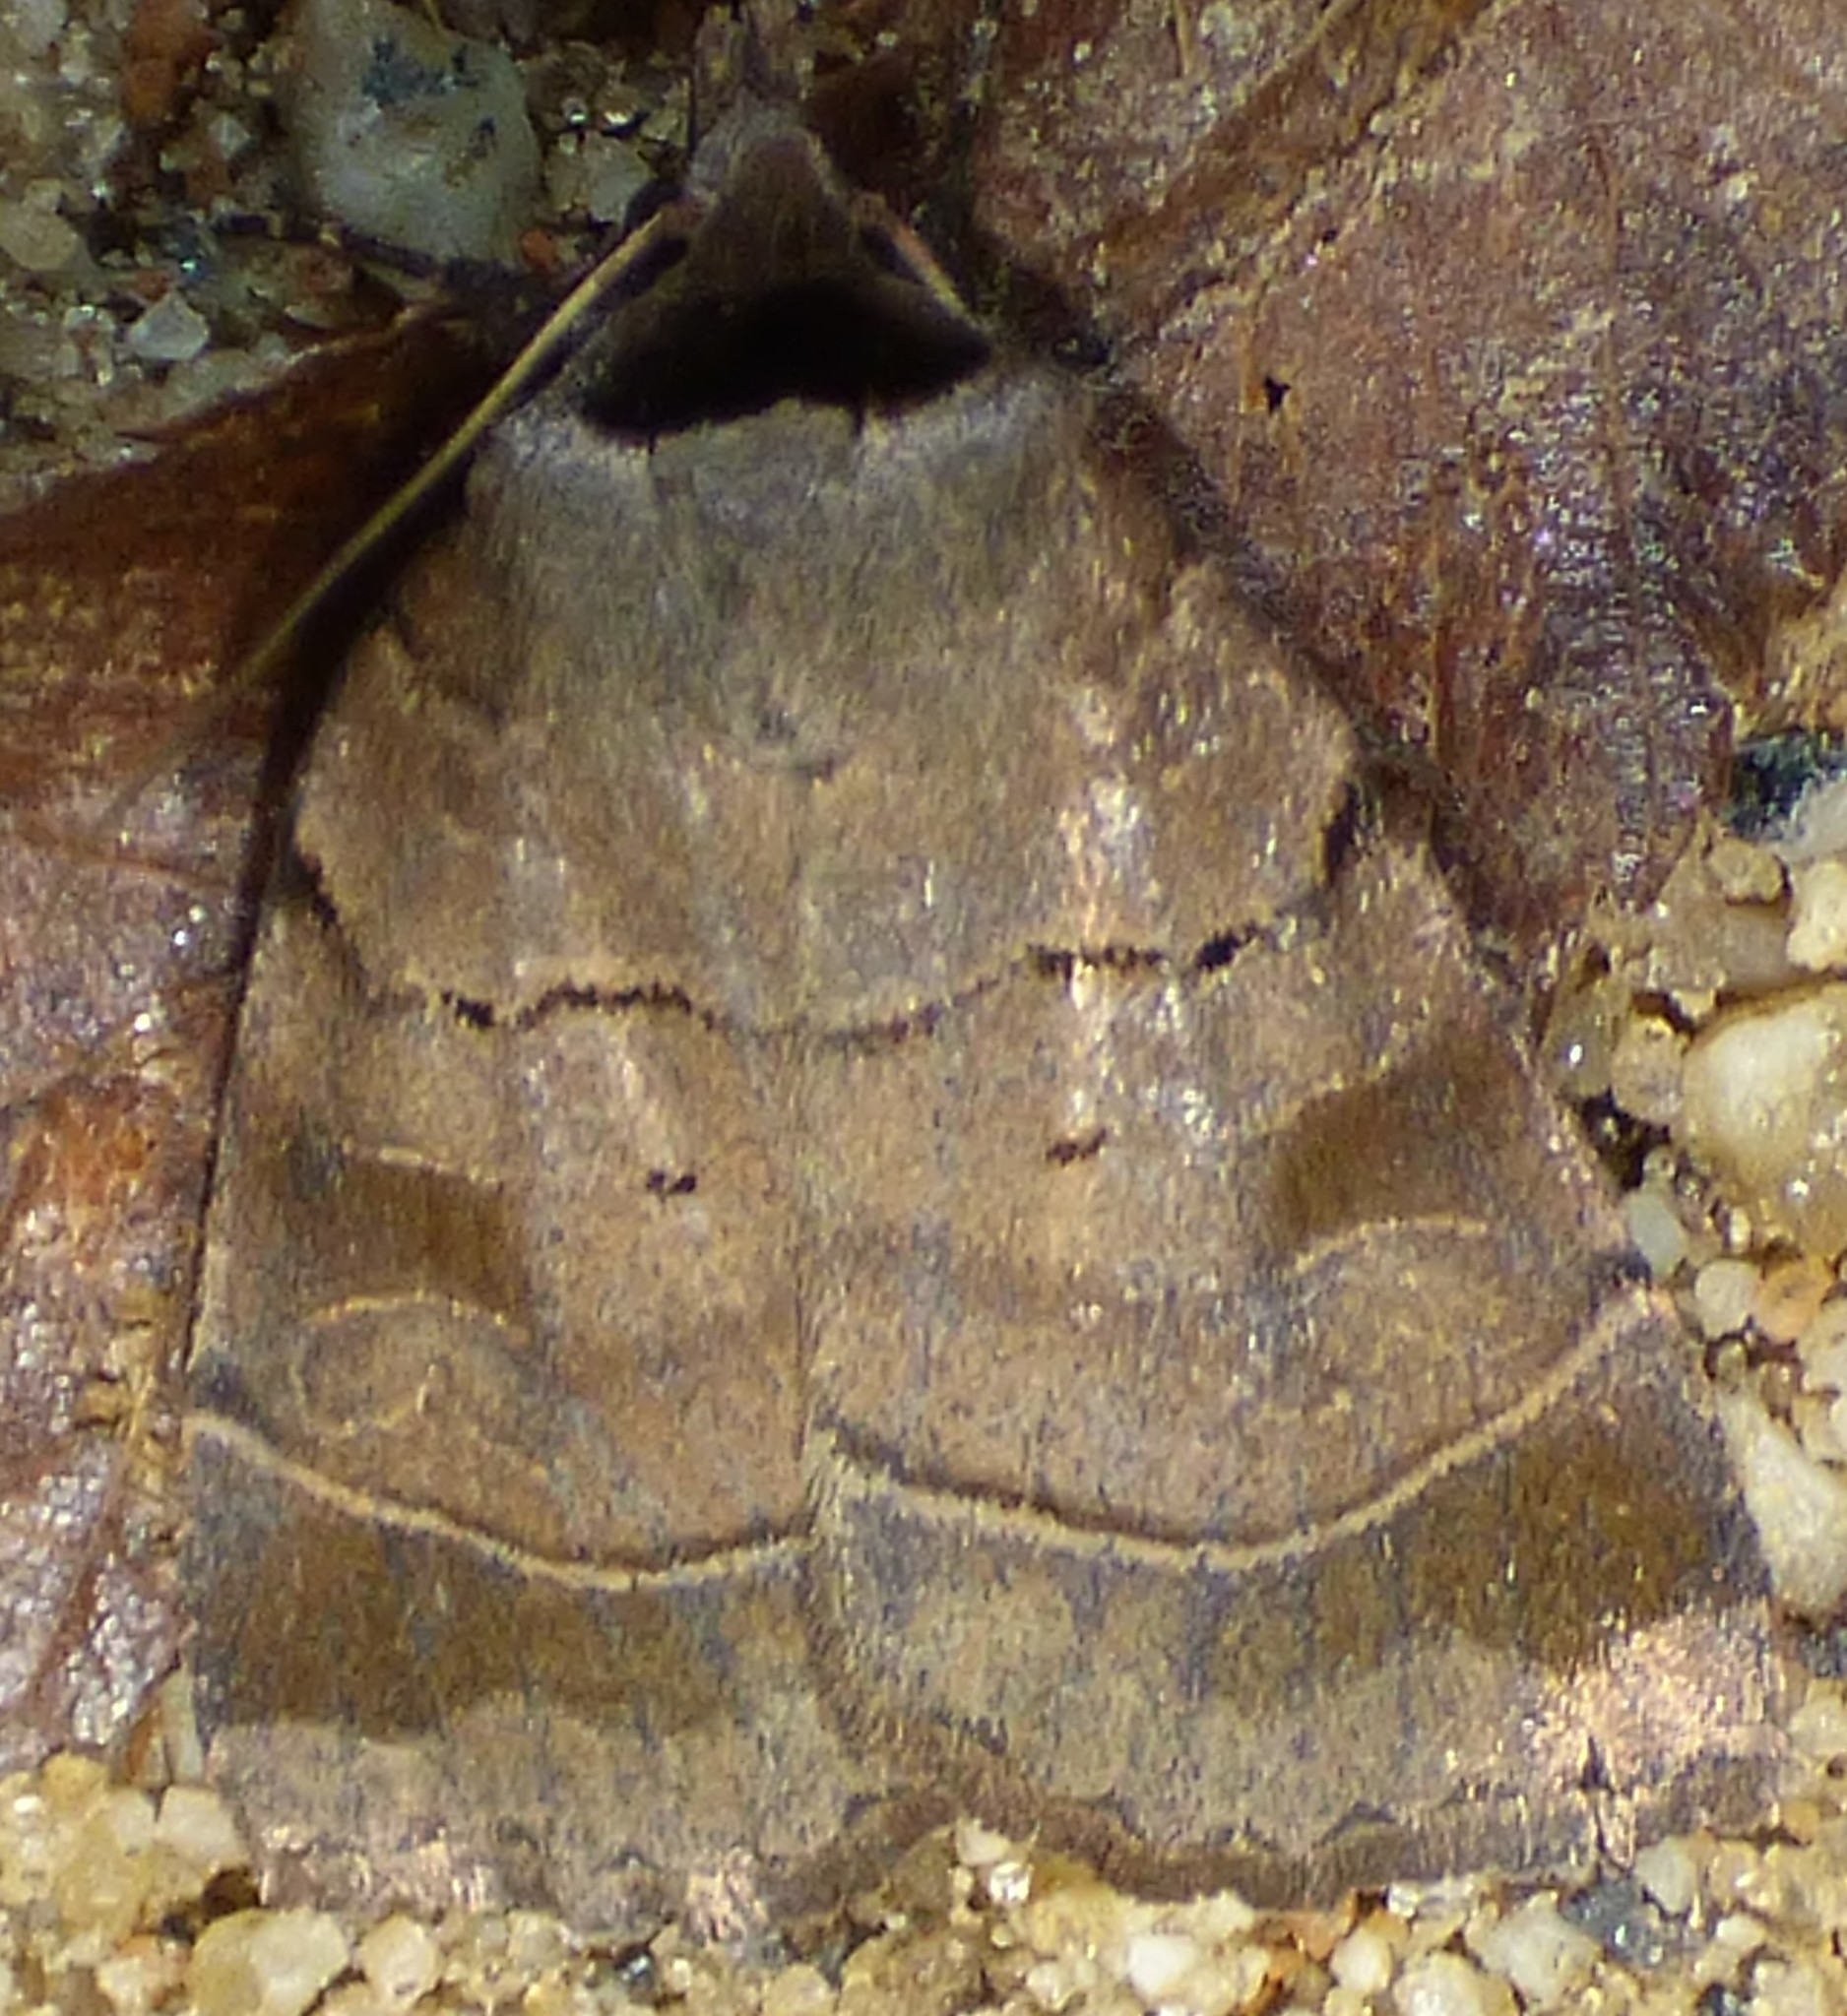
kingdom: Animalia
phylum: Arthropoda
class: Insecta
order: Lepidoptera
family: Noctuidae
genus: Agnorisma
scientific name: Agnorisma badinodis
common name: Pale-banded dart
